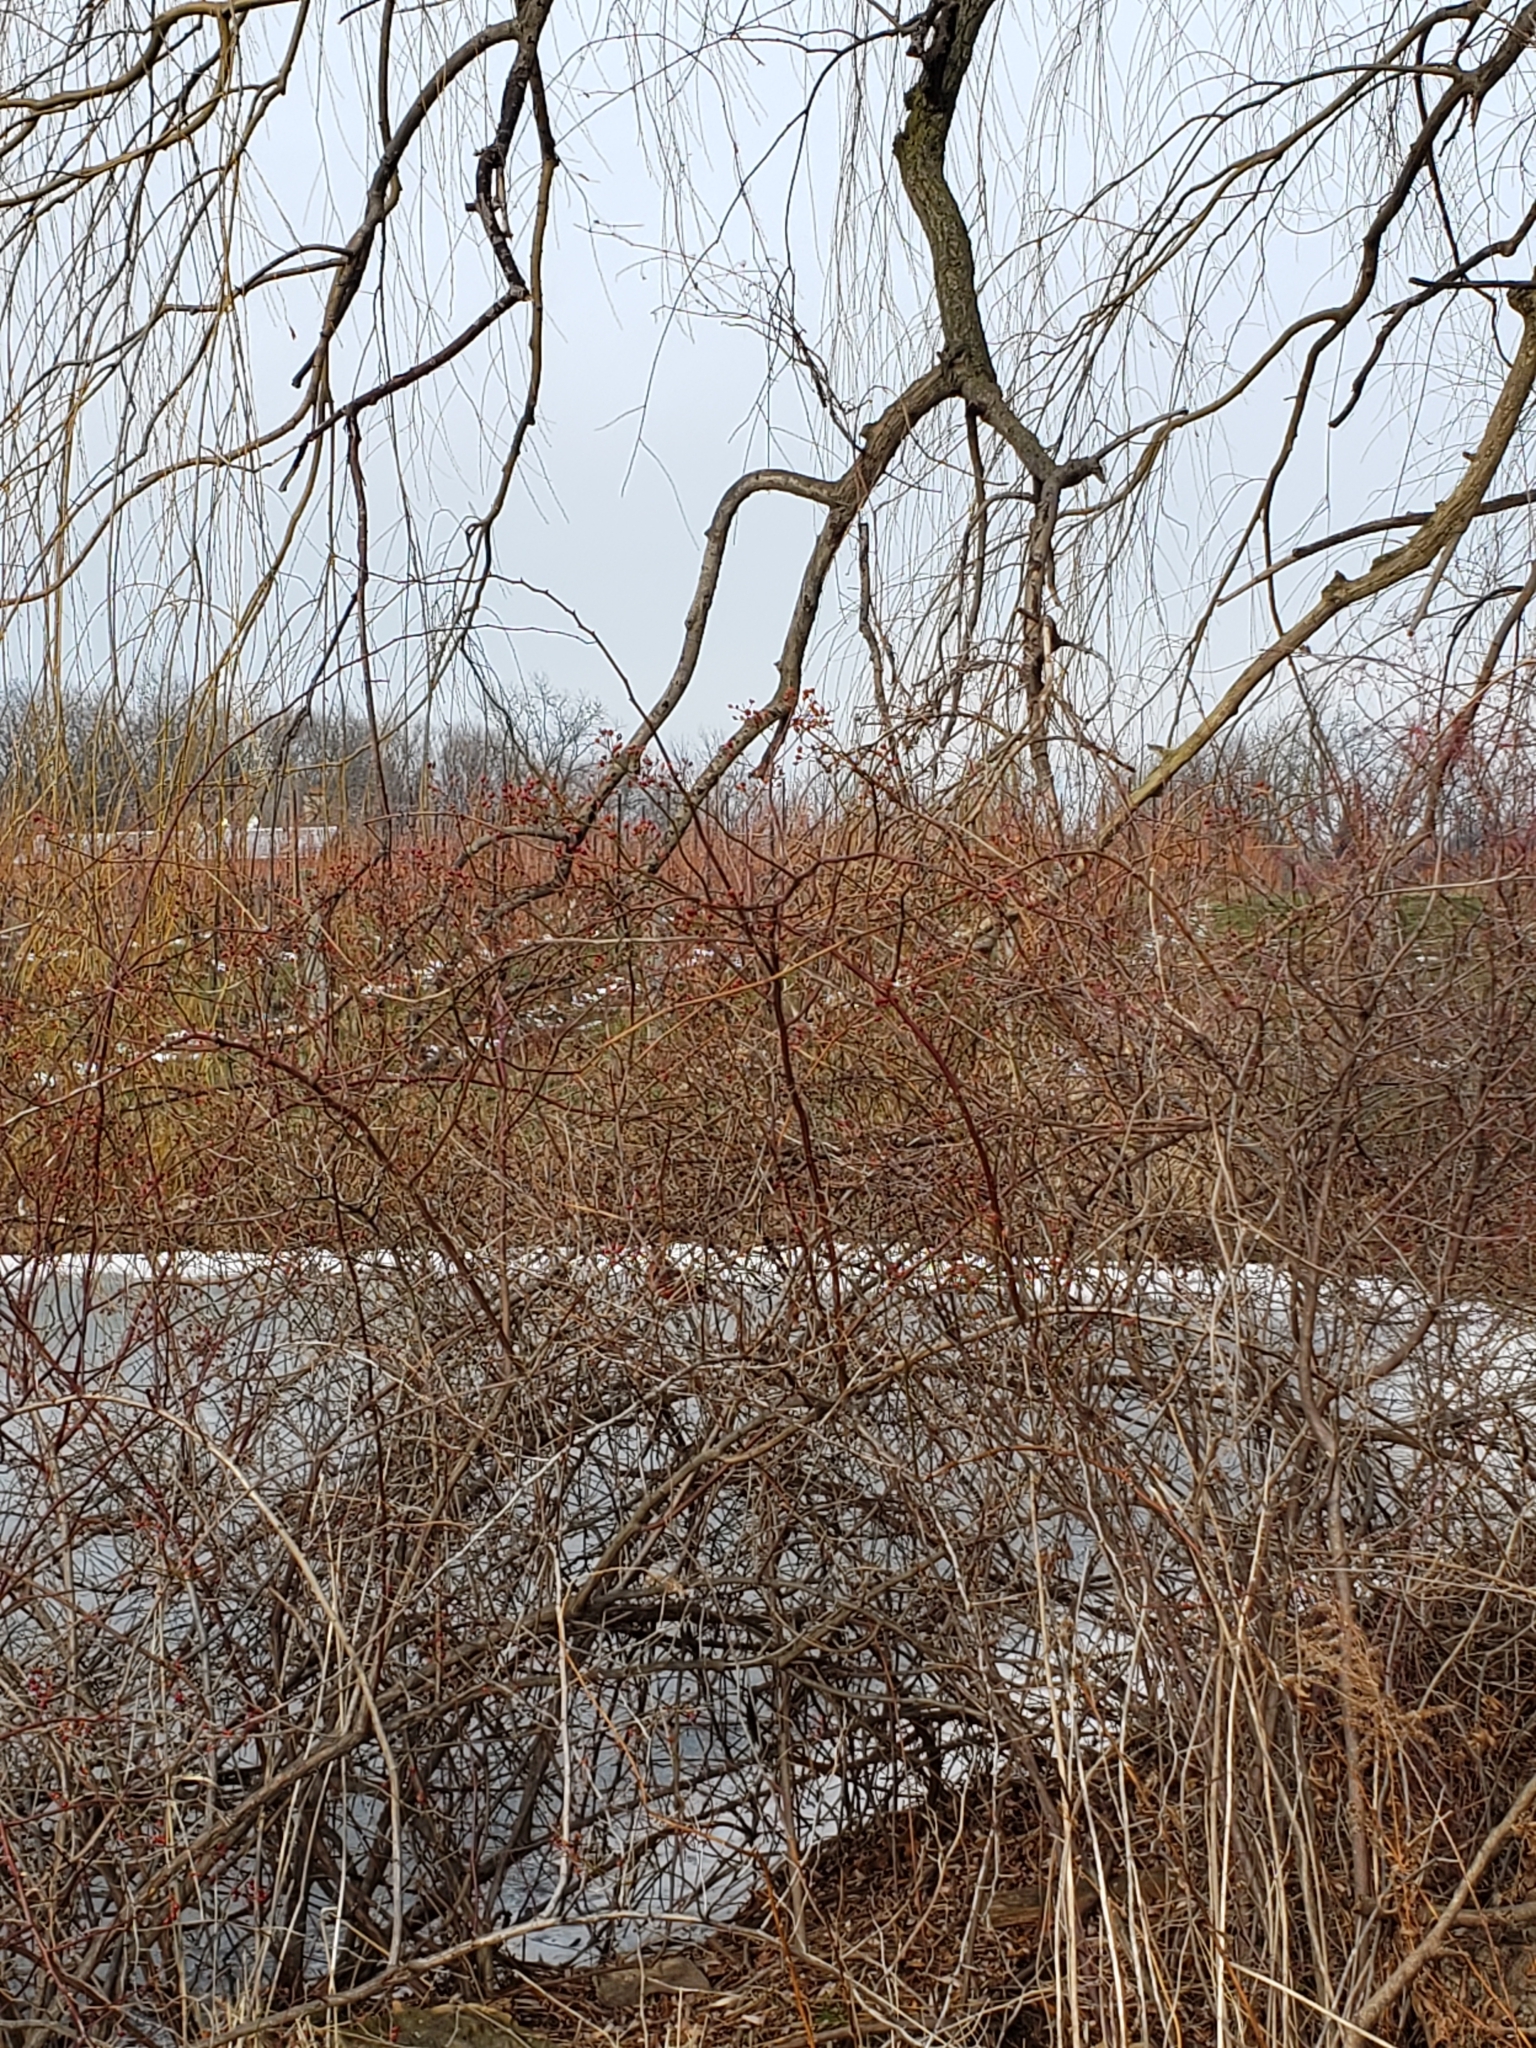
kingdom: Animalia
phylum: Chordata
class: Aves
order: Passeriformes
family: Cardinalidae
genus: Cardinalis
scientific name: Cardinalis cardinalis
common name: Northern cardinal
